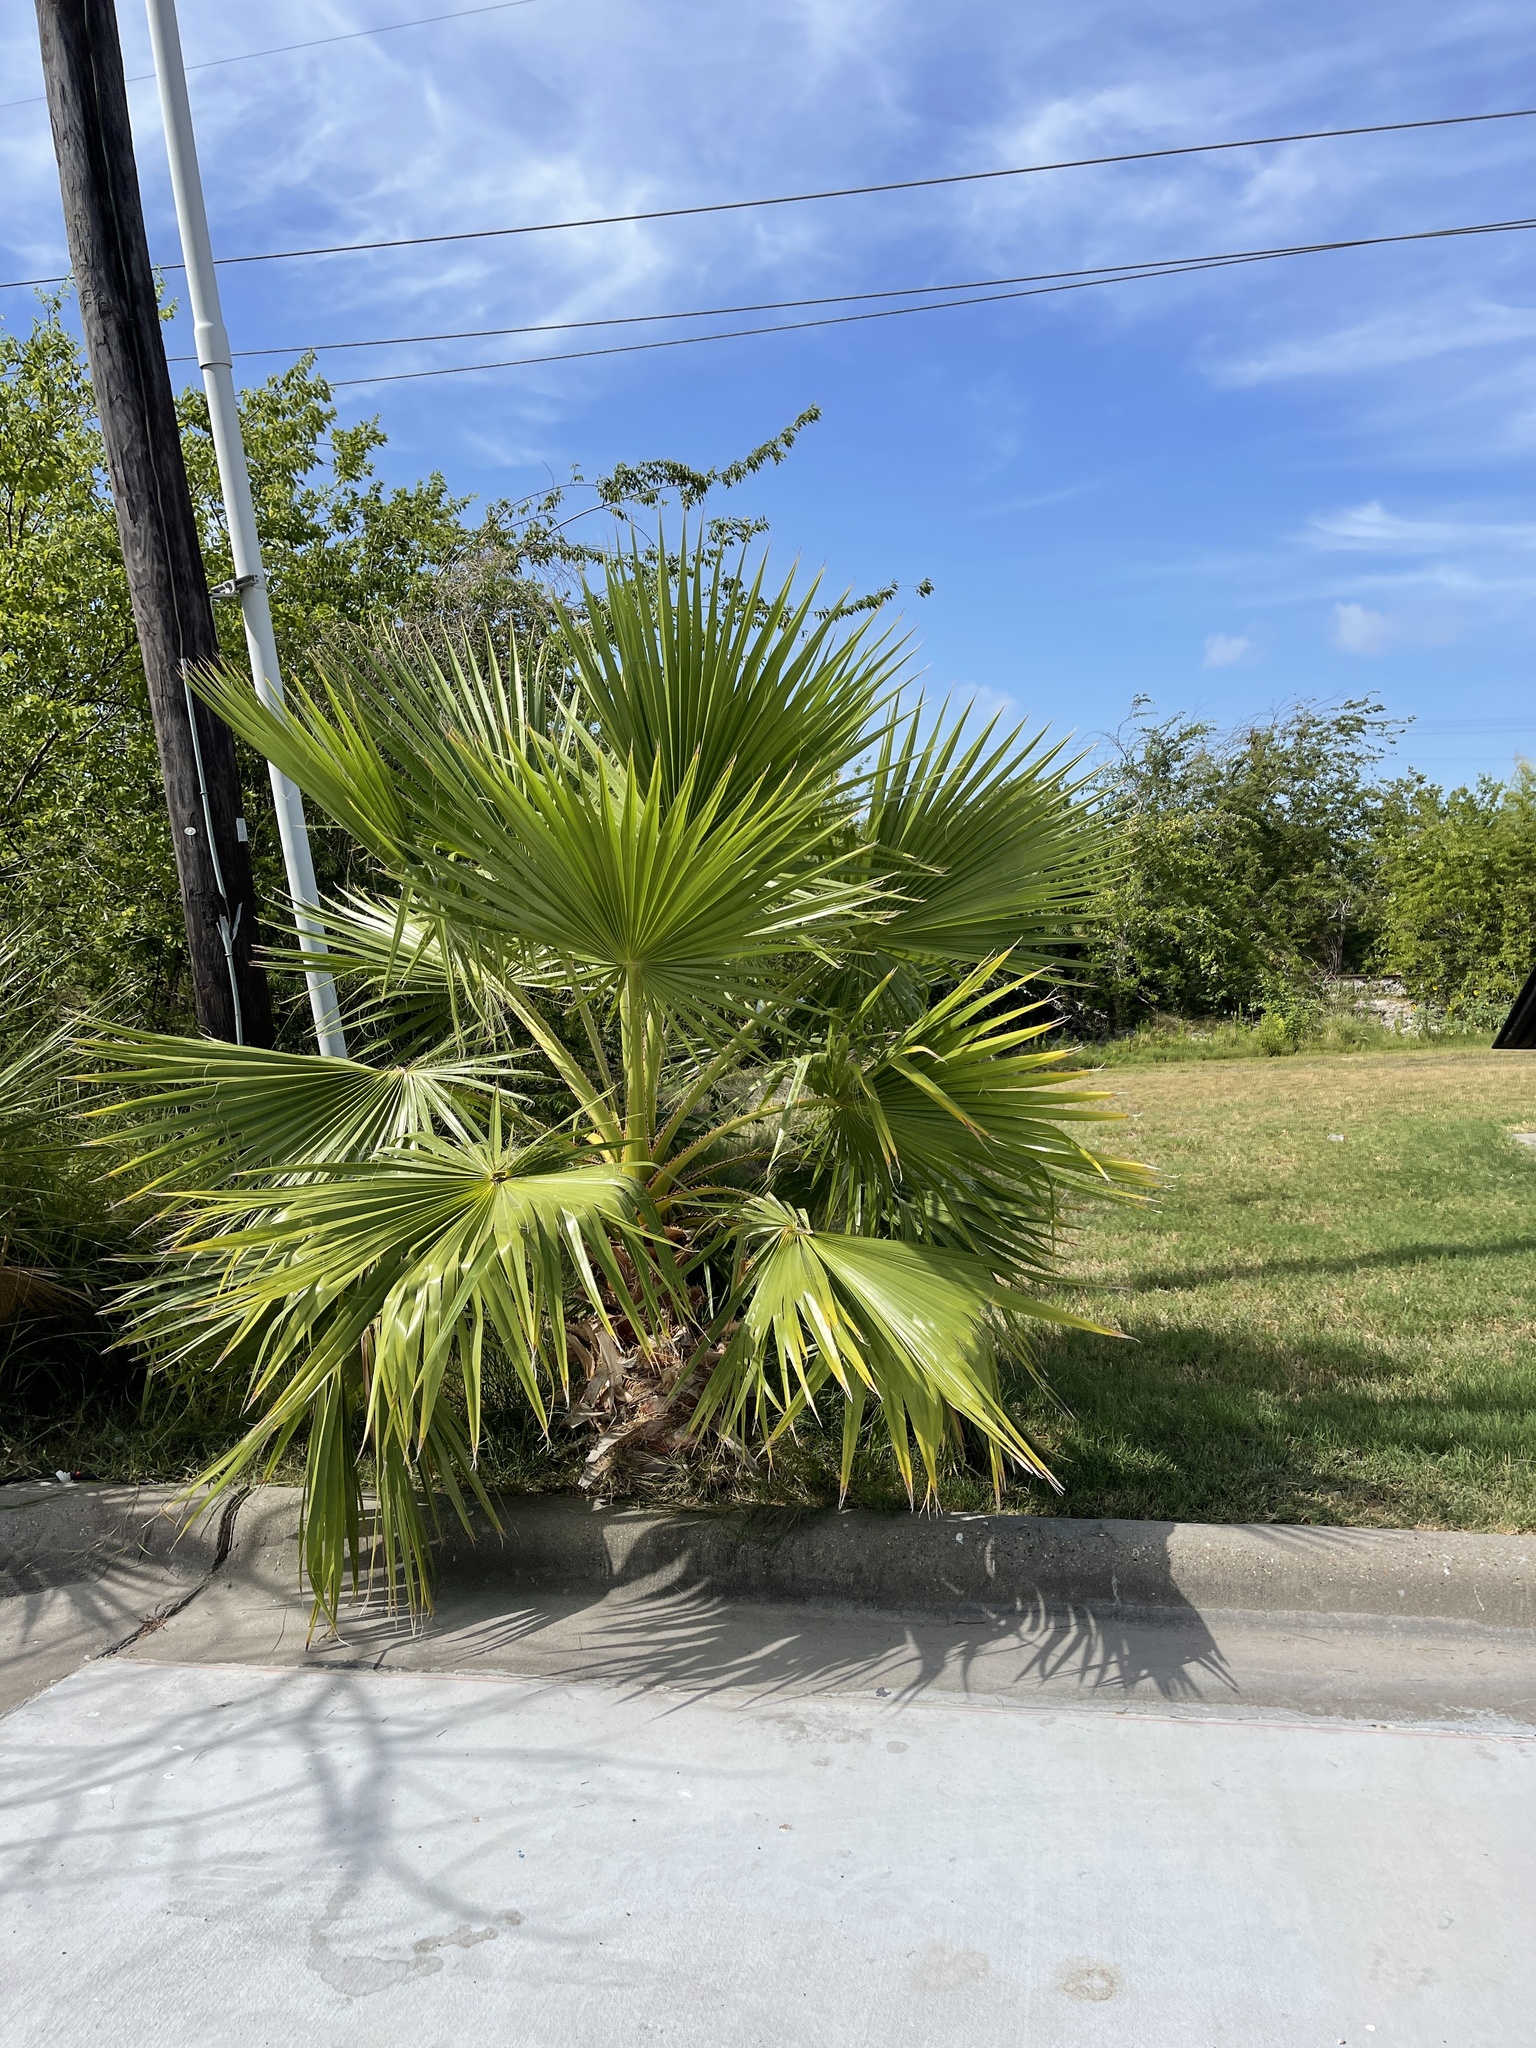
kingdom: Plantae
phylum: Tracheophyta
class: Liliopsida
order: Arecales
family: Arecaceae
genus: Washingtonia
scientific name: Washingtonia robusta
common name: Mexican fan palm
